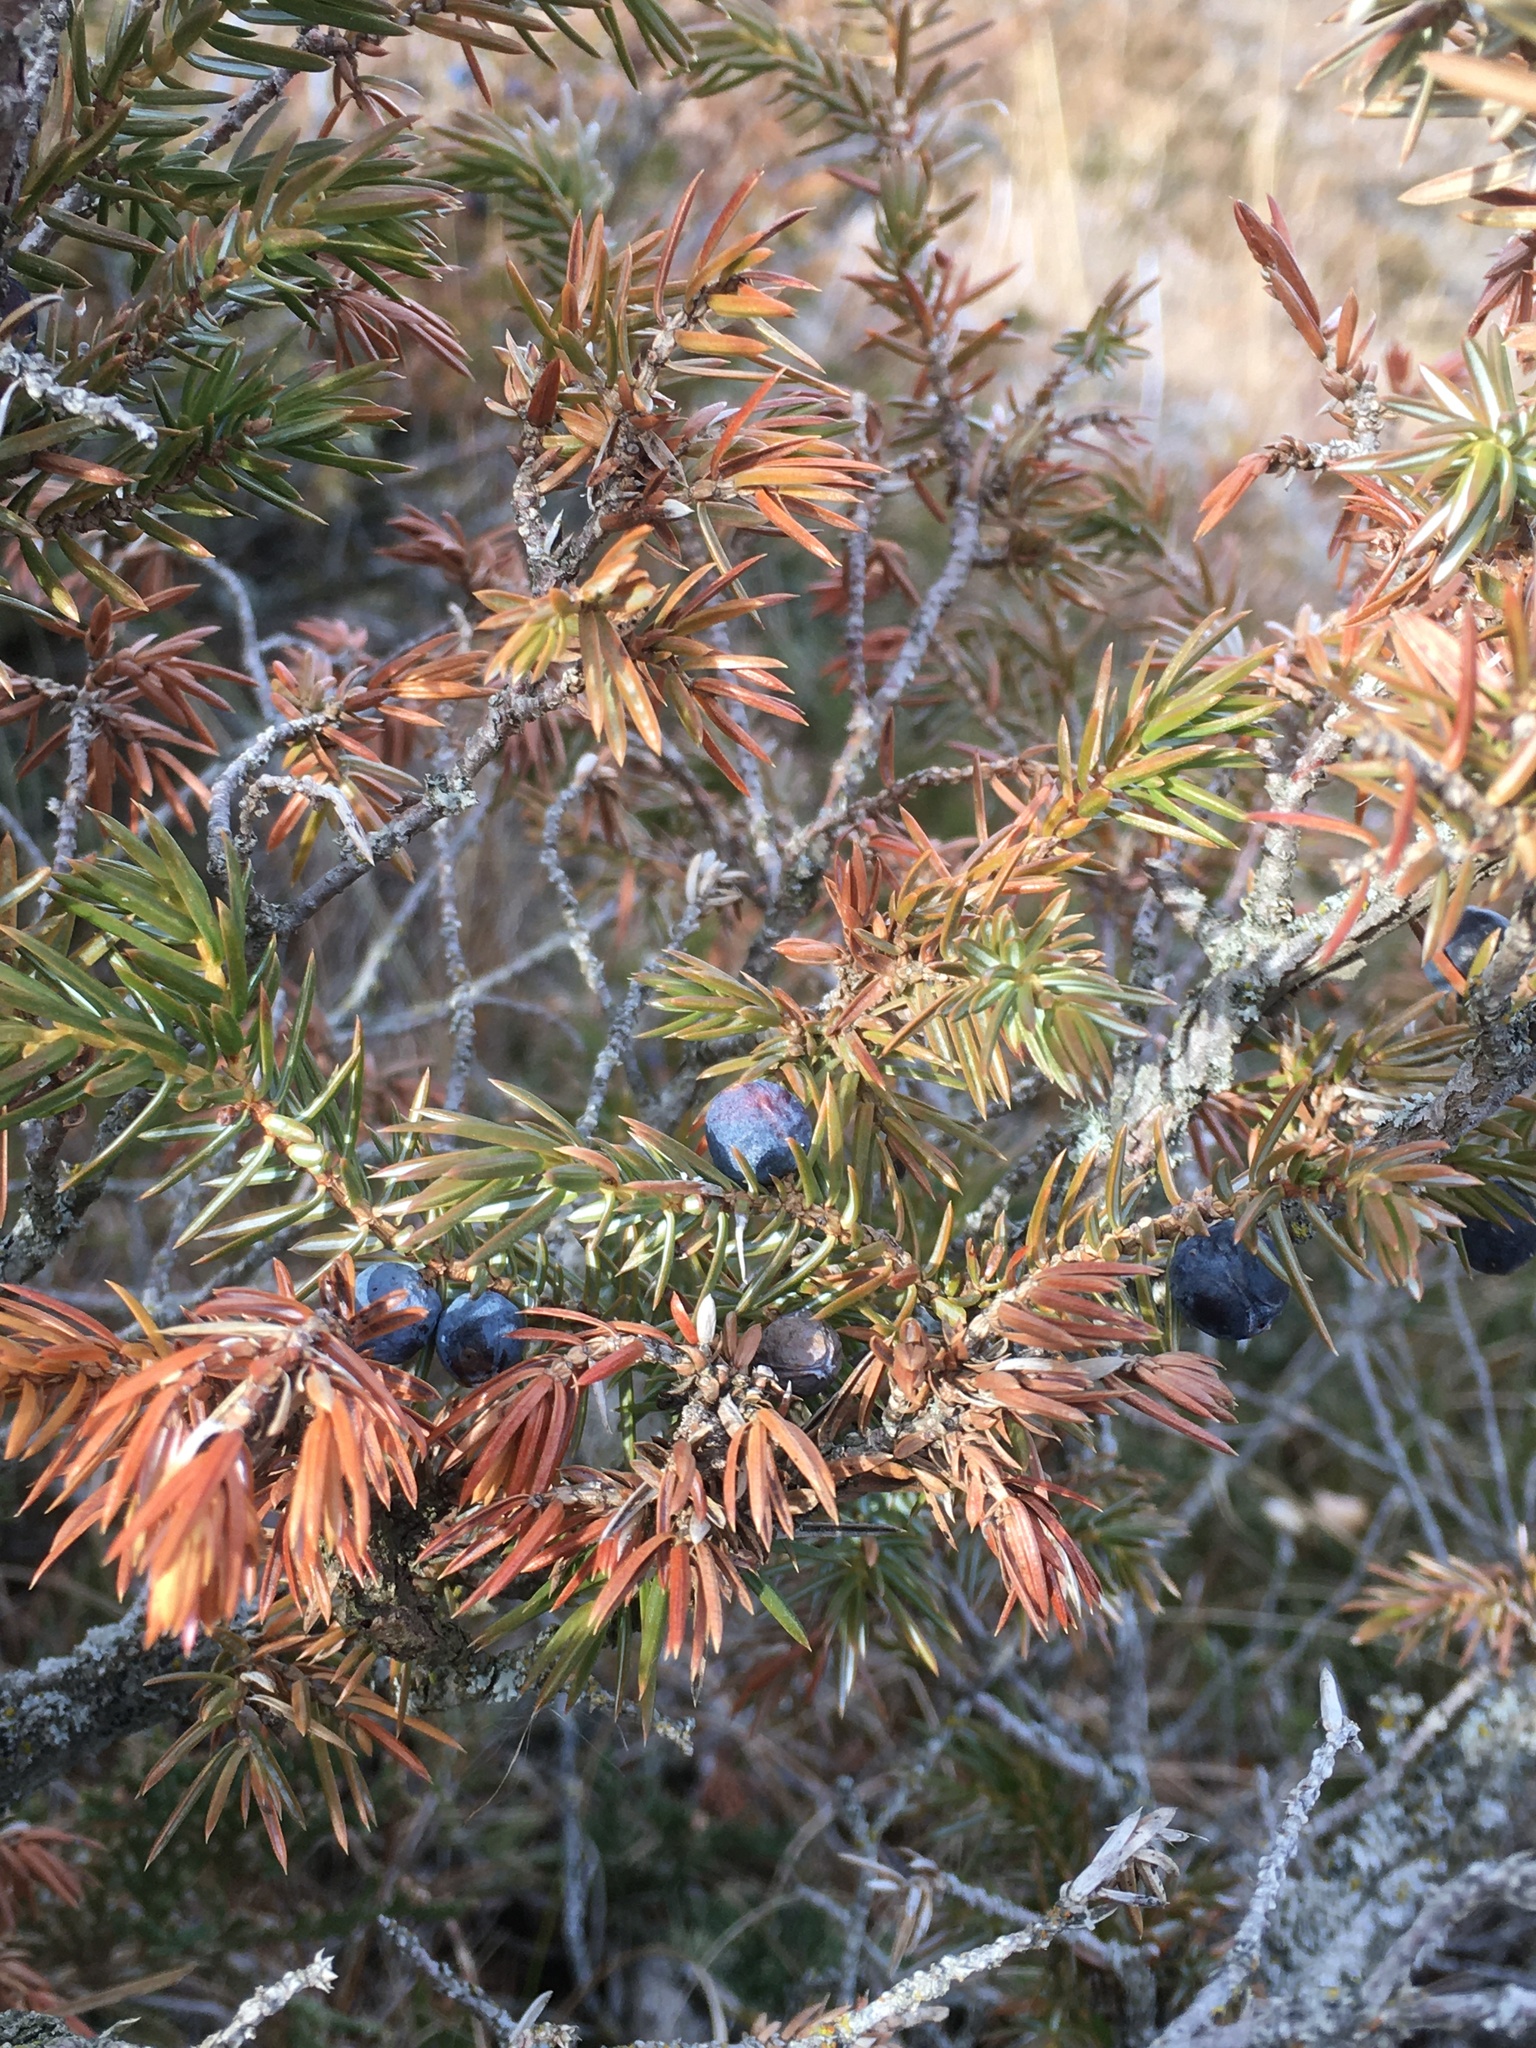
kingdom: Plantae
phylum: Tracheophyta
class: Pinopsida
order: Pinales
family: Cupressaceae
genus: Juniperus
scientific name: Juniperus communis
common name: Common juniper
